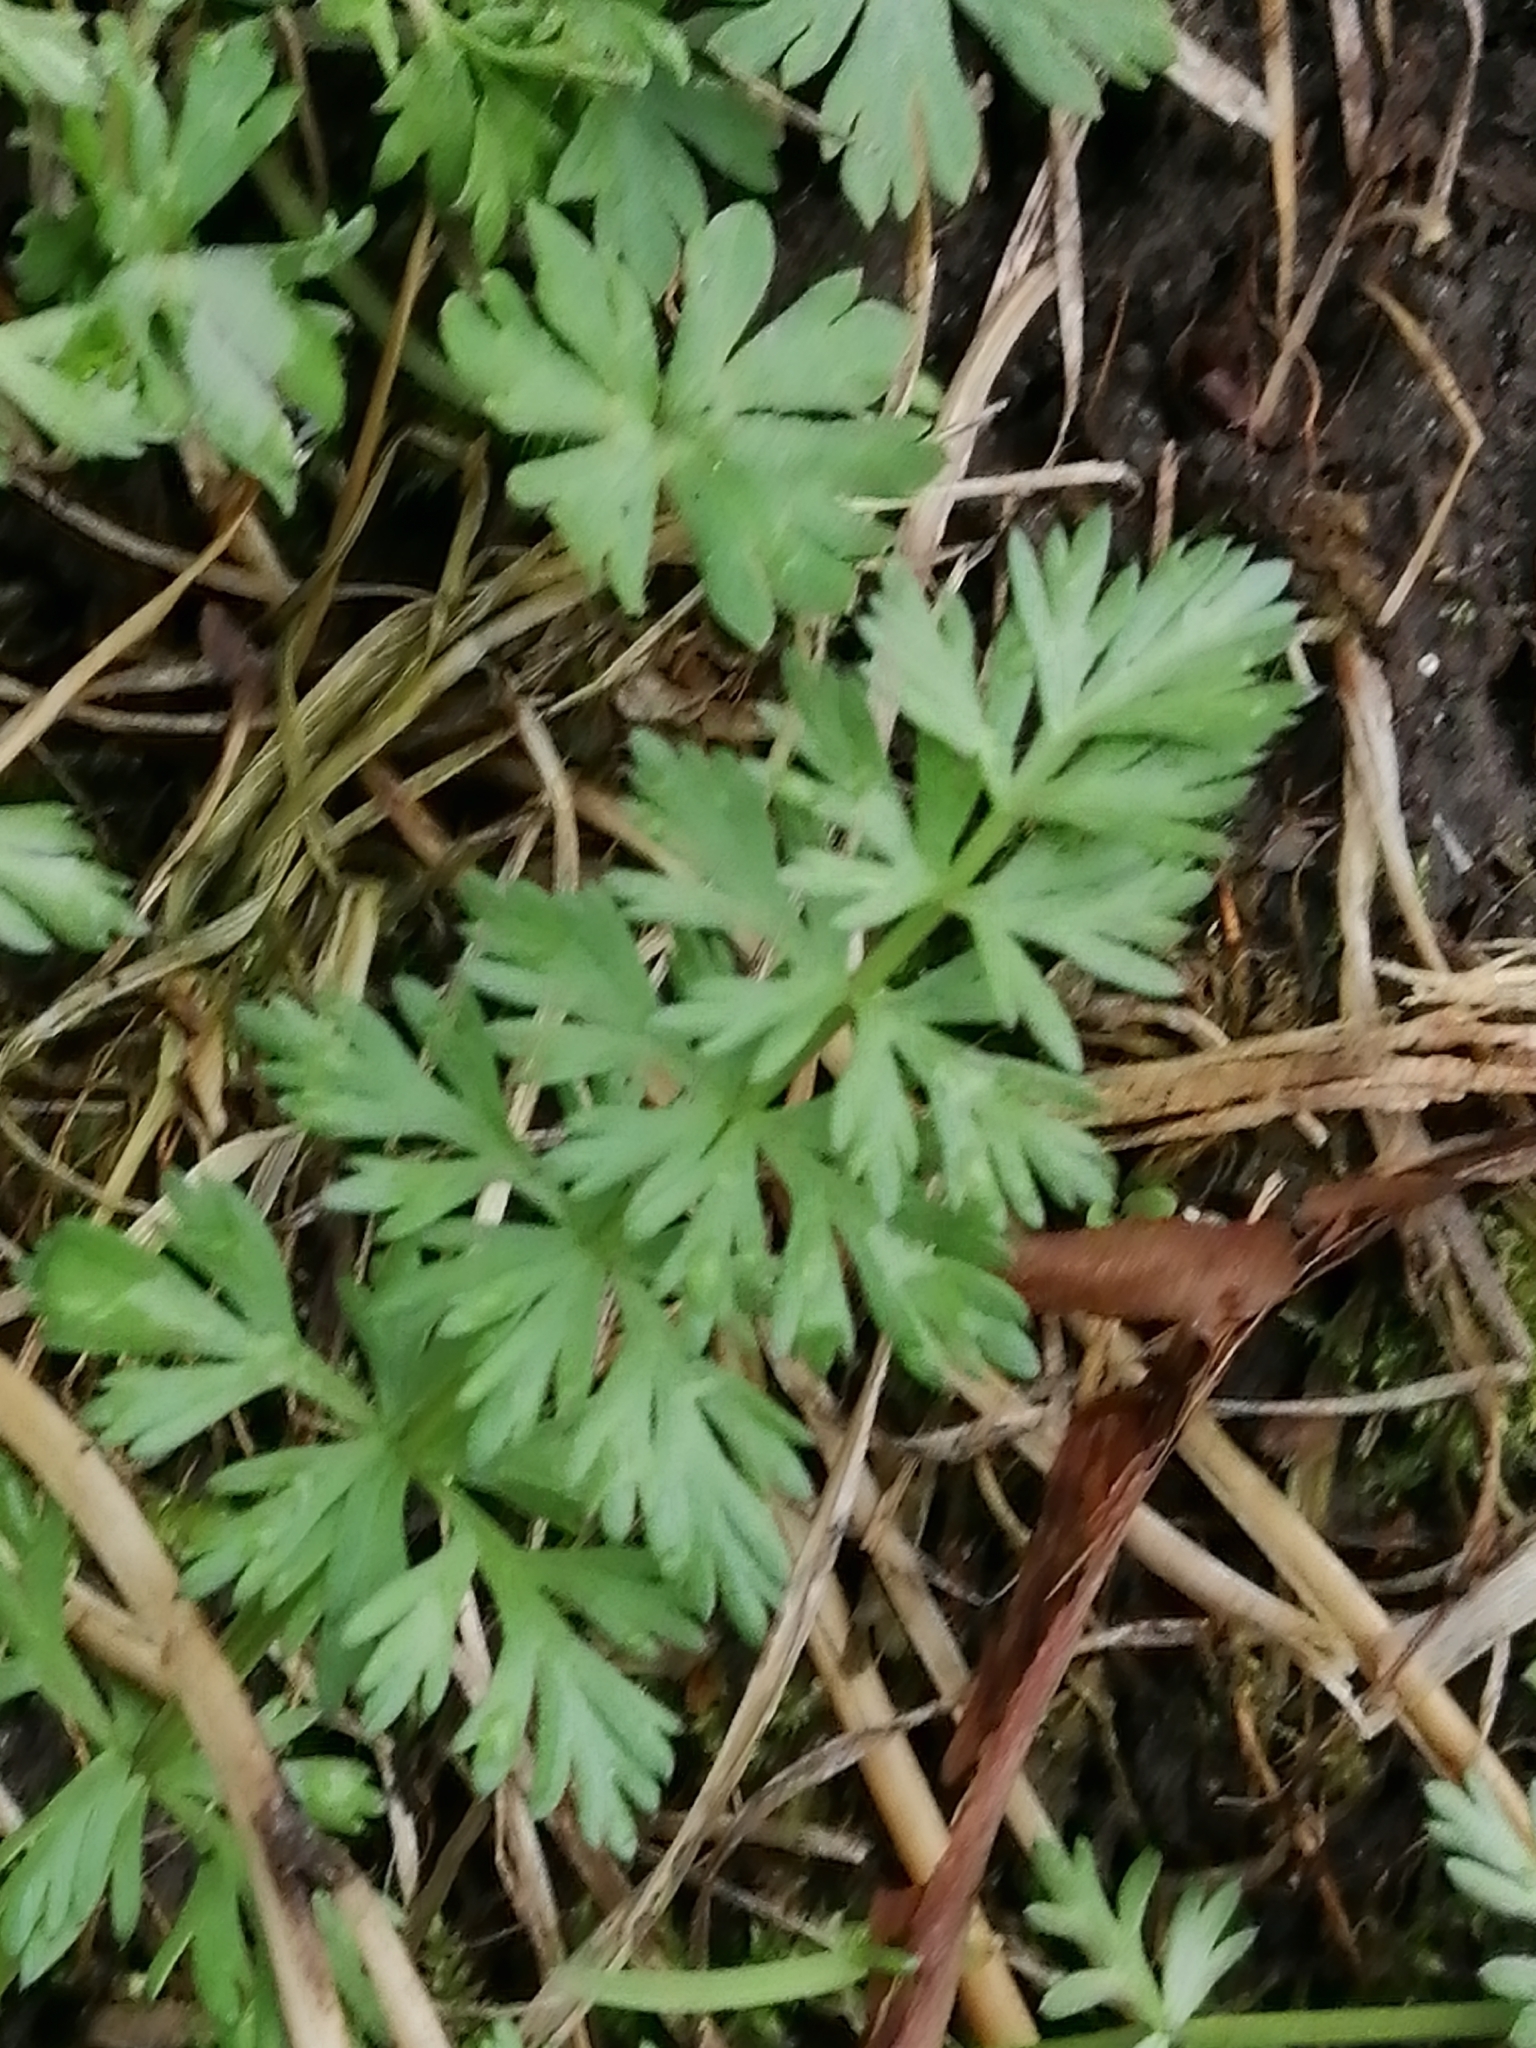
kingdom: Plantae
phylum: Tracheophyta
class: Magnoliopsida
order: Apiales
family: Apiaceae
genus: Carum
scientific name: Carum carvi
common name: Caraway
